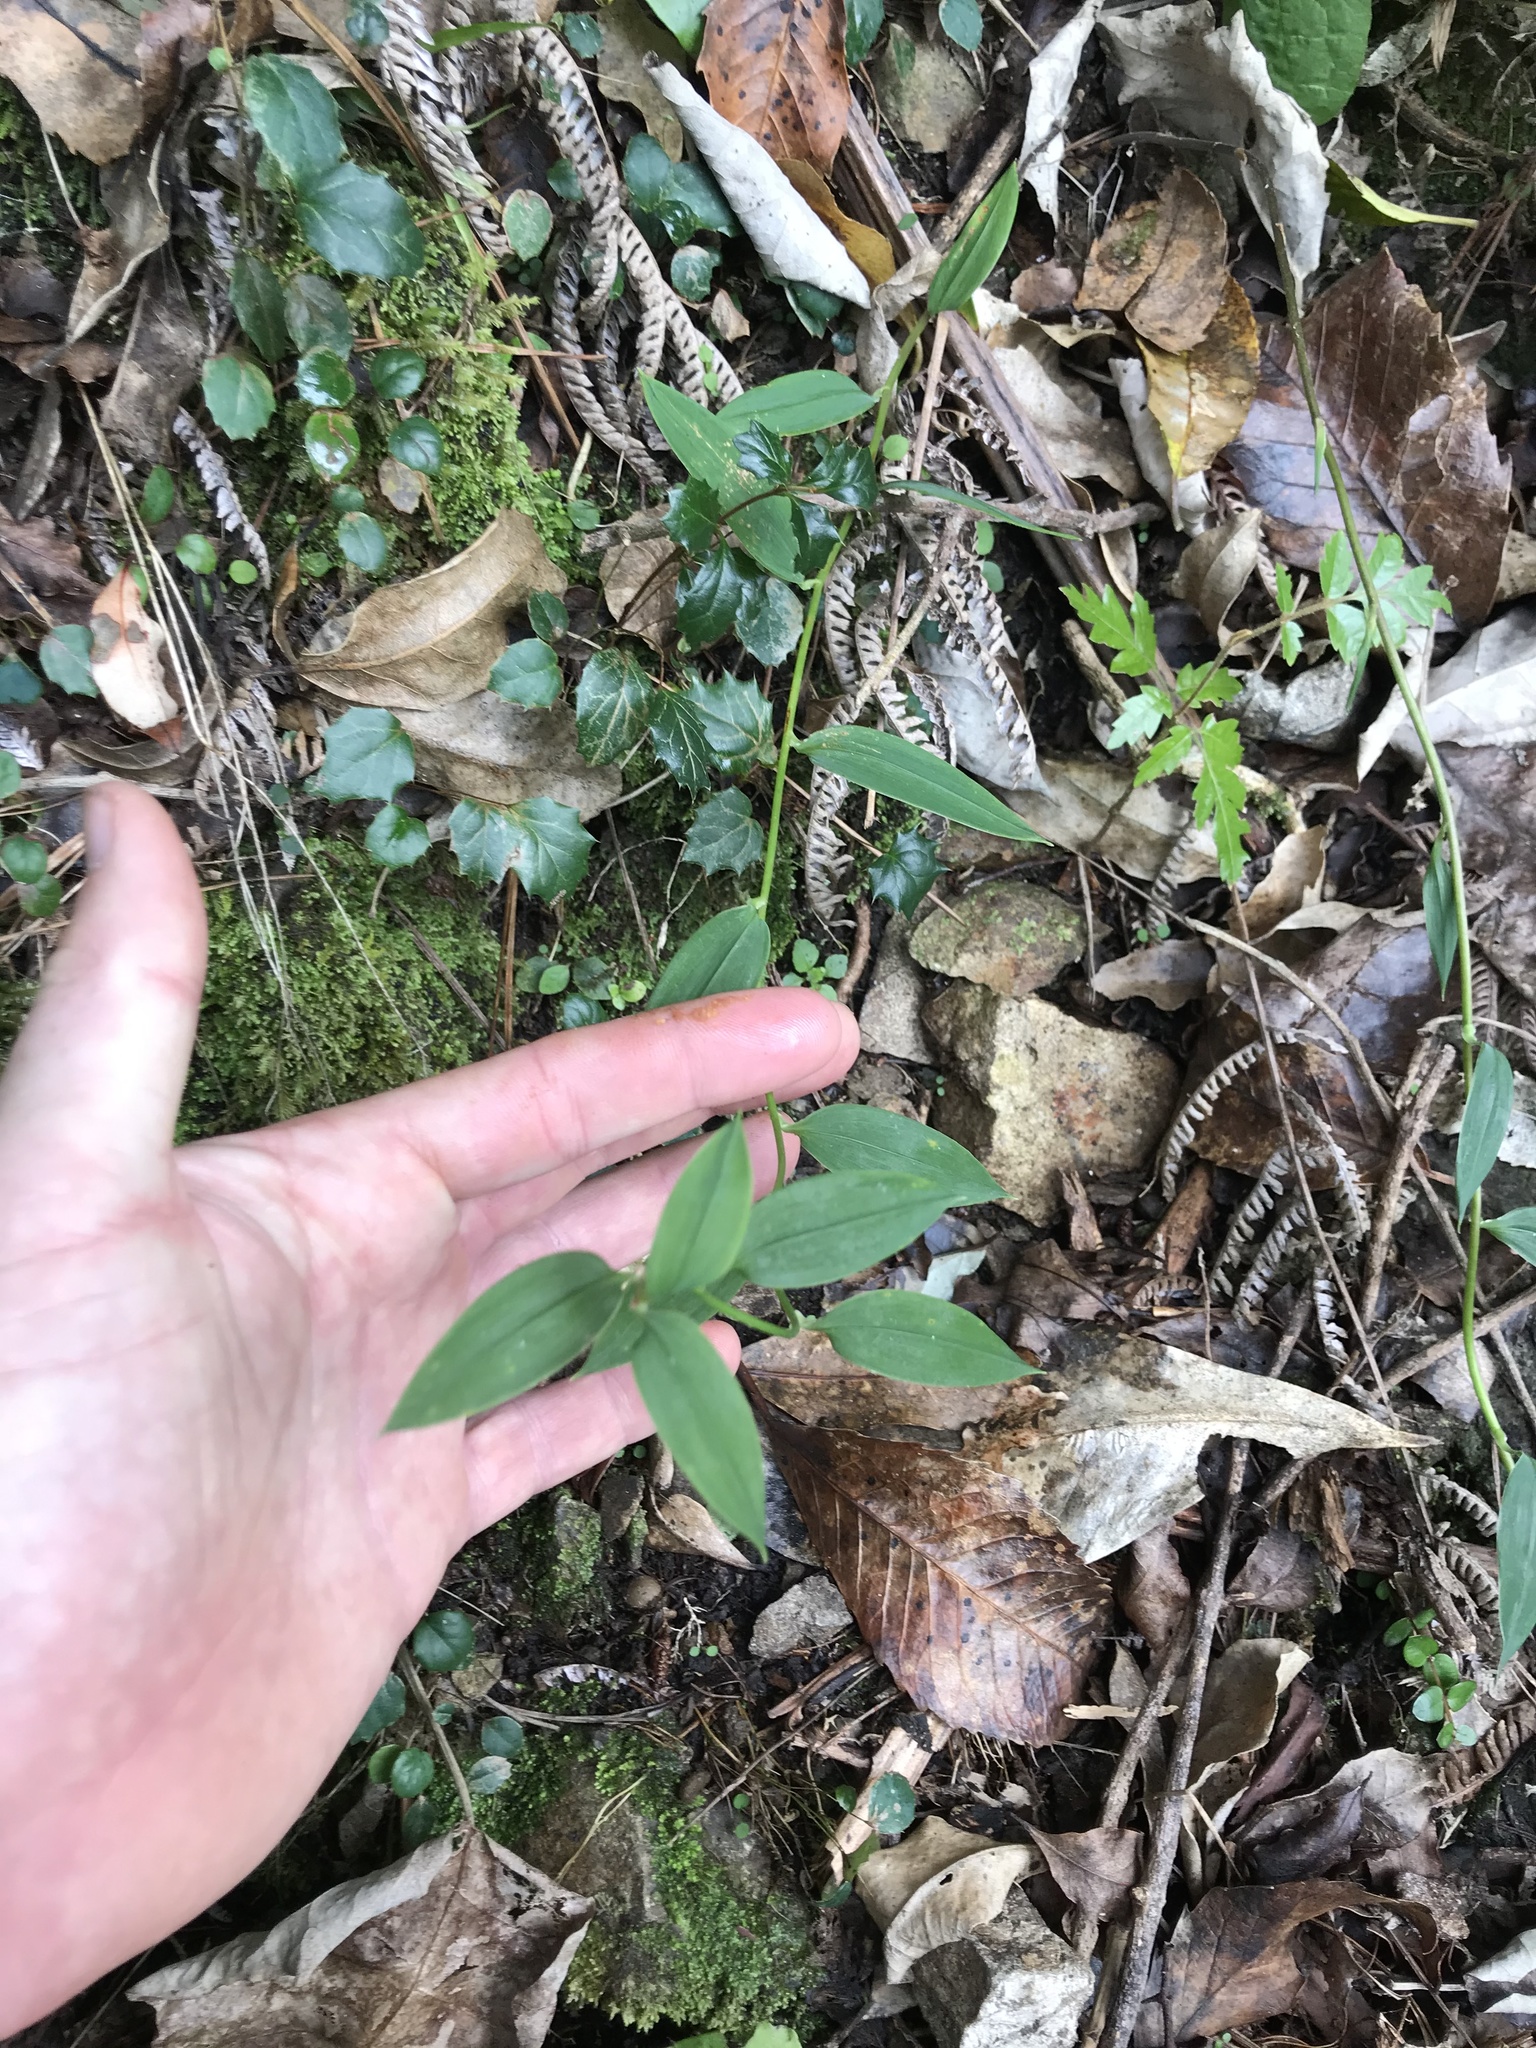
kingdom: Plantae
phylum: Tracheophyta
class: Liliopsida
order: Liliales
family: Alstroemeriaceae
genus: Bomarea
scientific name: Bomarea multiflora
